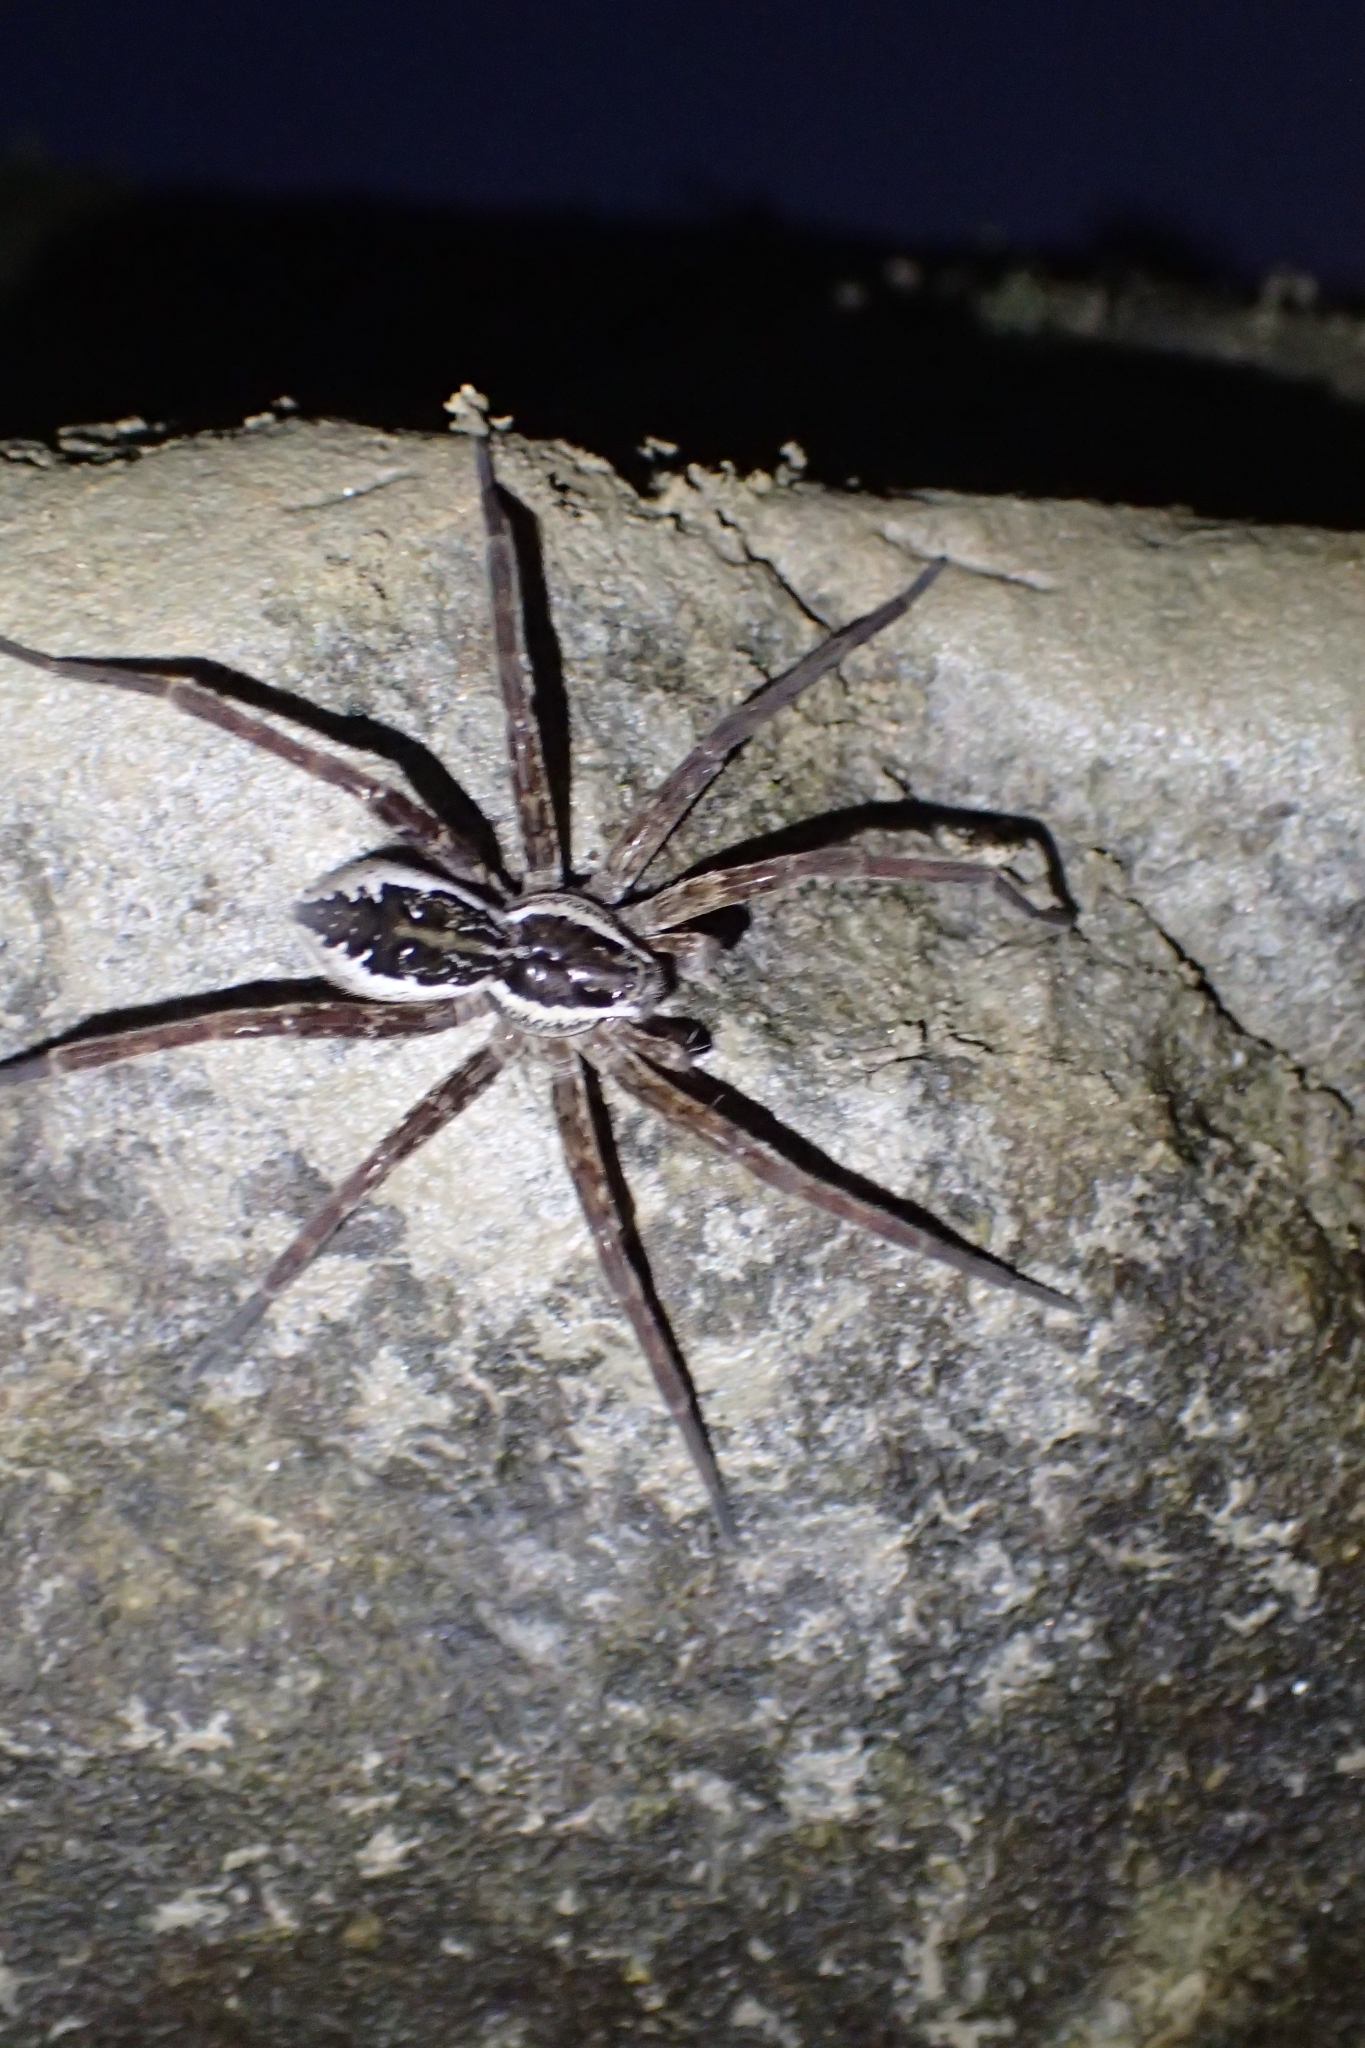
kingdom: Animalia
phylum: Arthropoda
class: Arachnida
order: Araneae
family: Pisauridae
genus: Dolomedes
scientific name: Dolomedes dondalei
